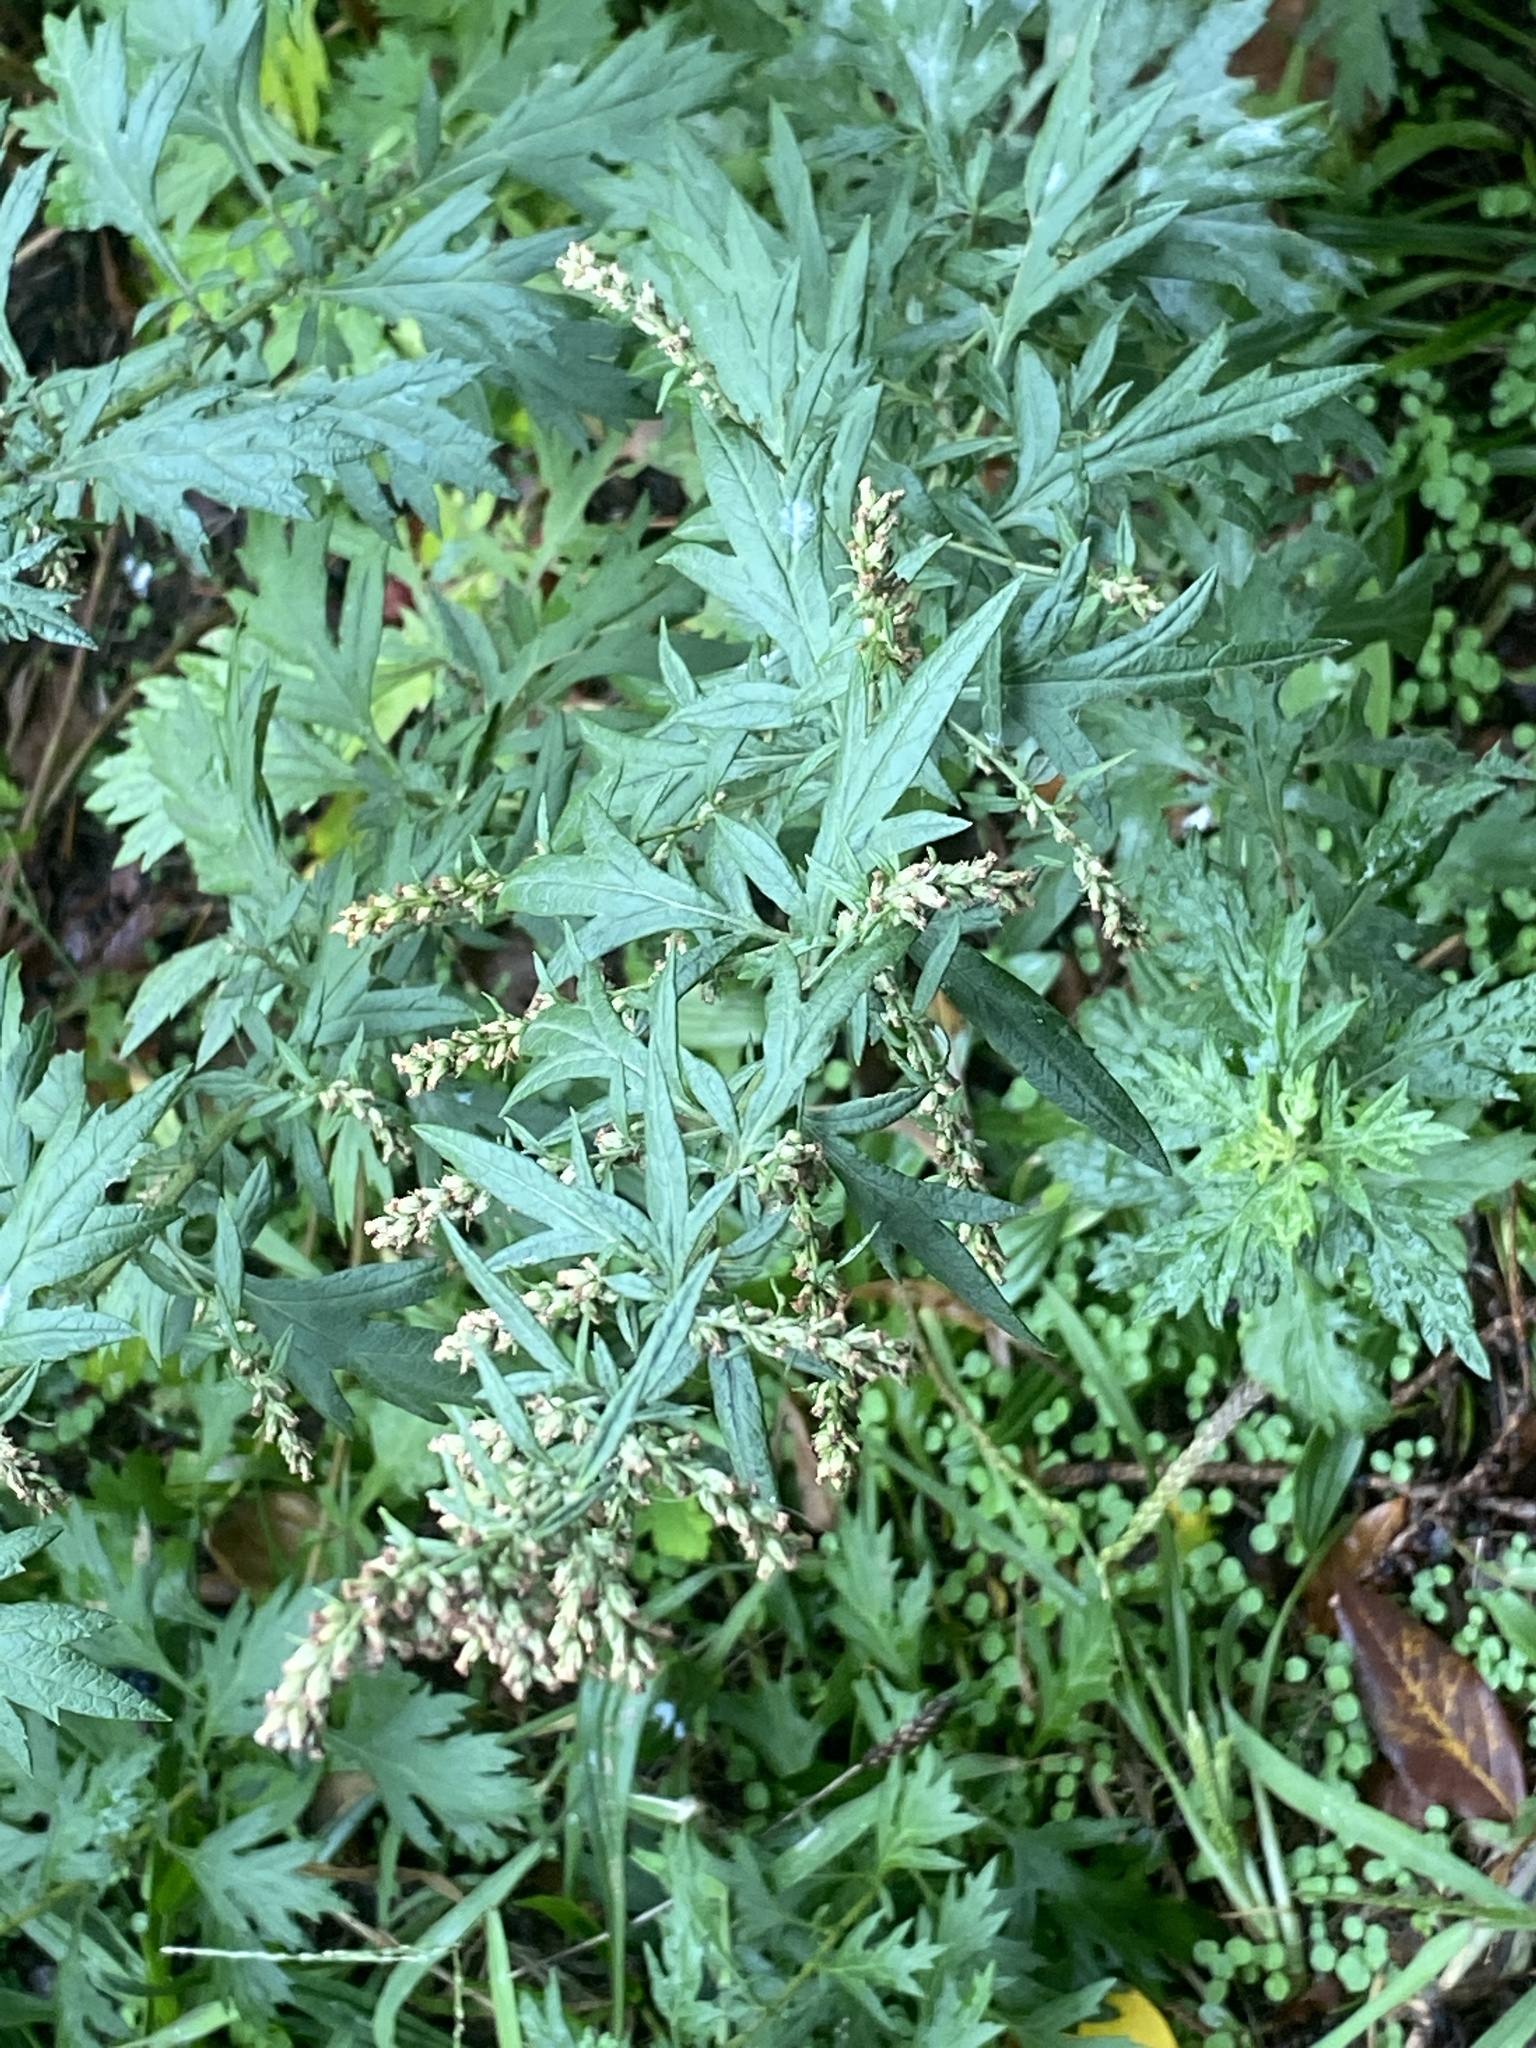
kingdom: Plantae
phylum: Tracheophyta
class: Magnoliopsida
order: Asterales
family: Asteraceae
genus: Artemisia
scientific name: Artemisia vulgaris
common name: Mugwort
